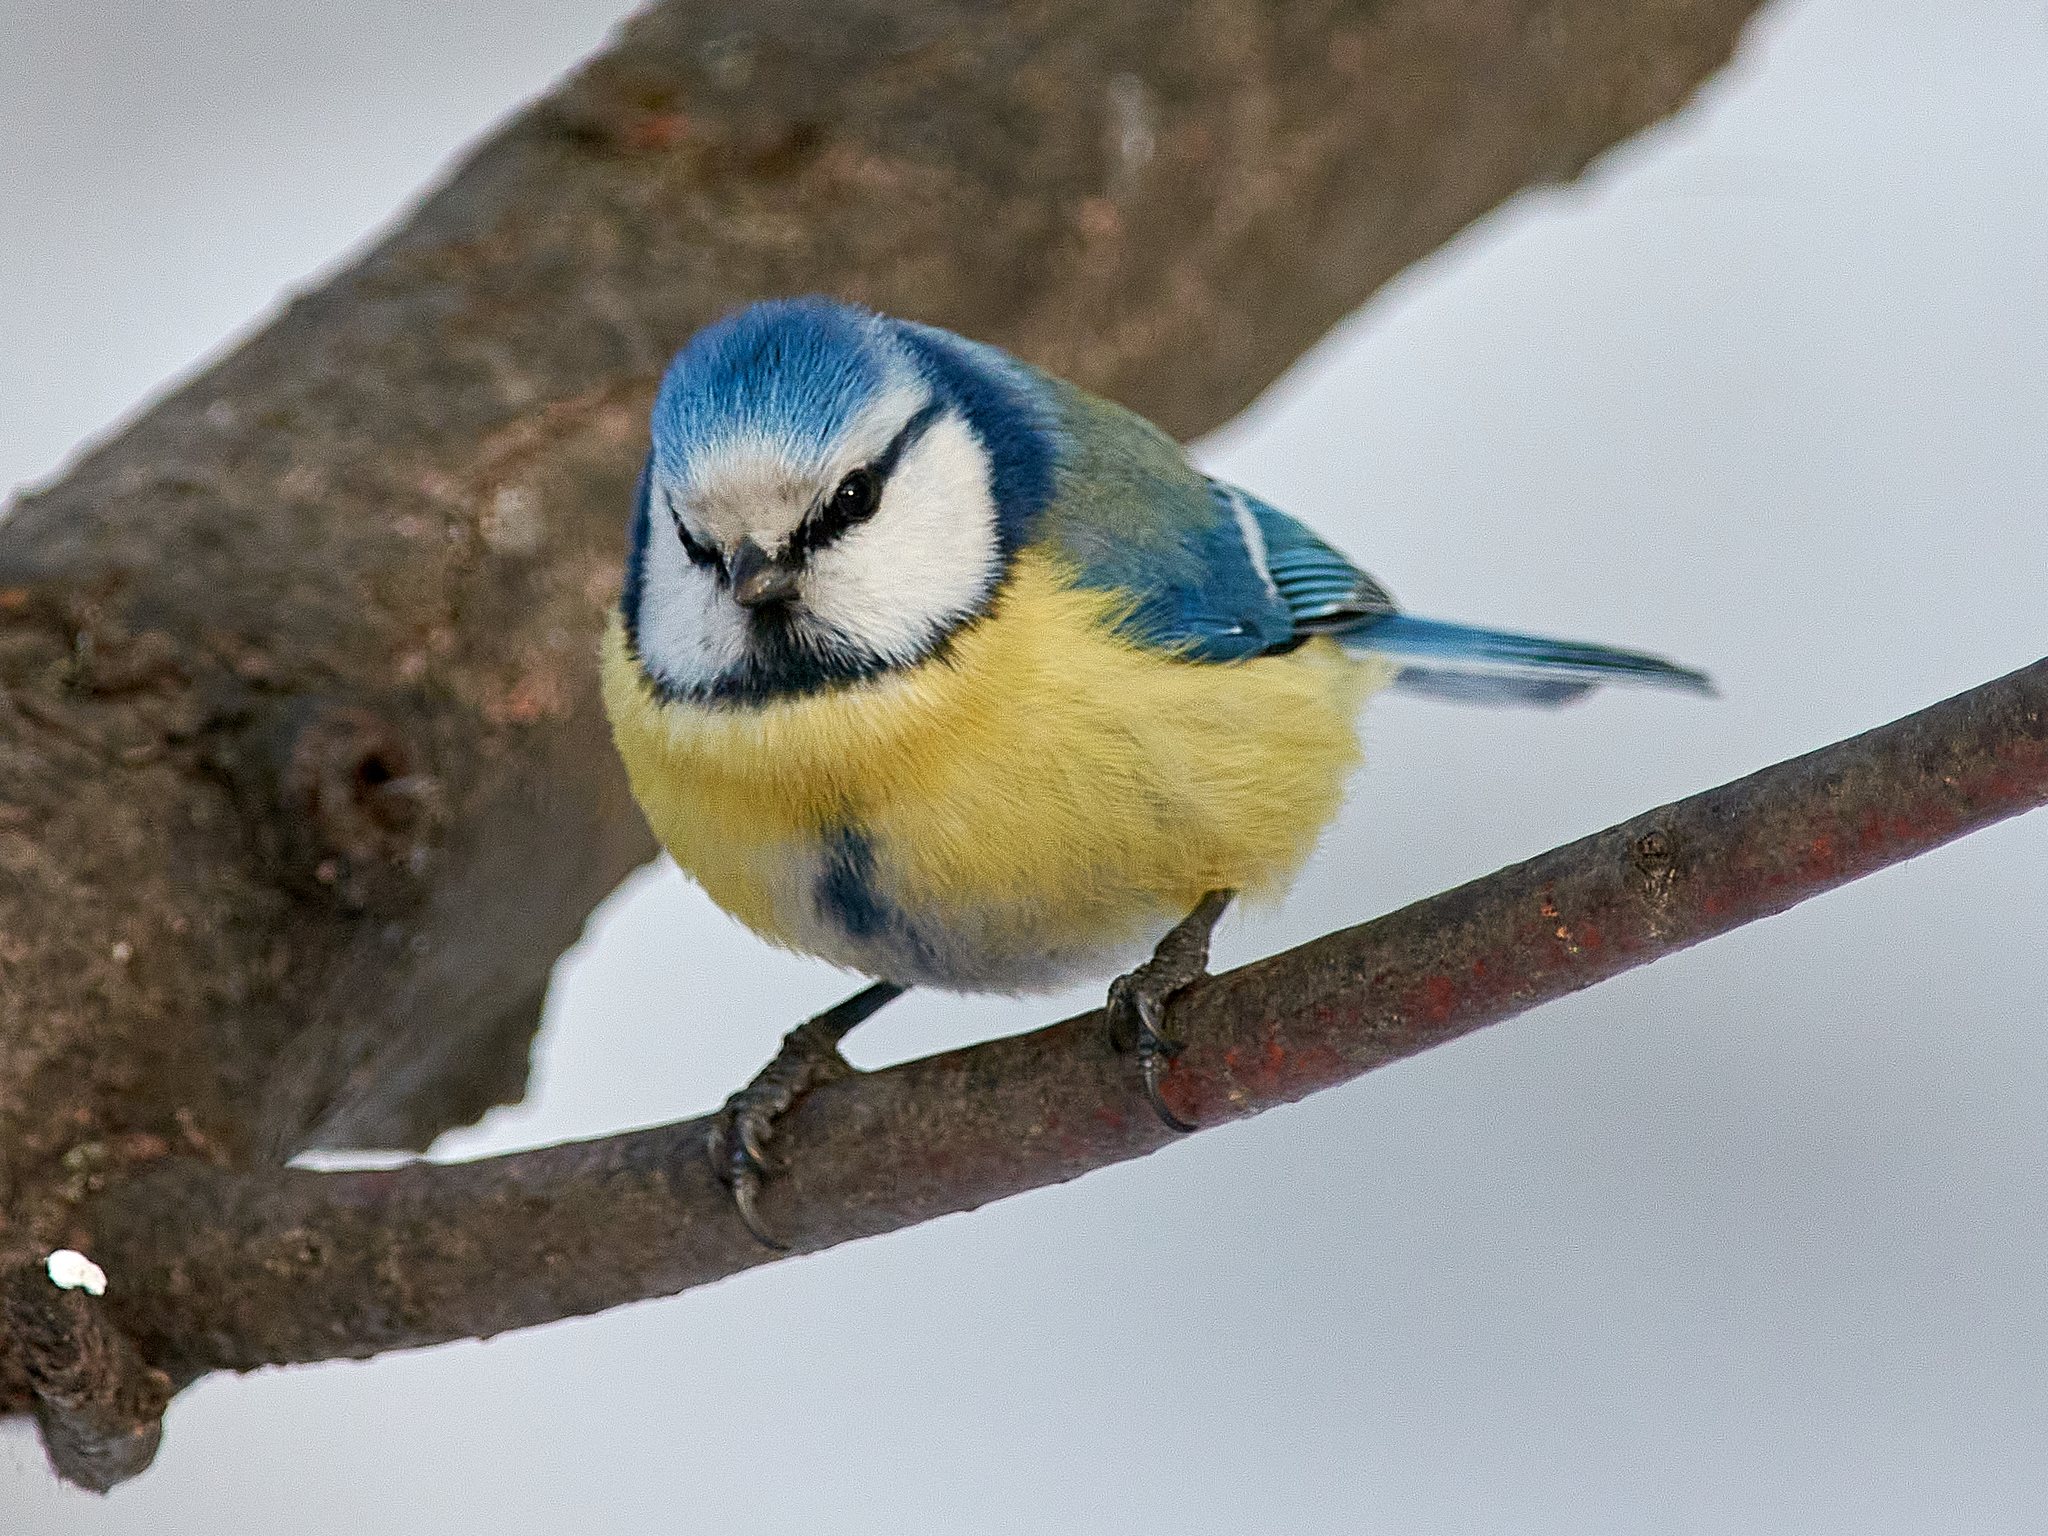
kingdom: Animalia
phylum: Chordata
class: Aves
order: Passeriformes
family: Paridae
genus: Cyanistes
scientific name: Cyanistes caeruleus
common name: Eurasian blue tit
